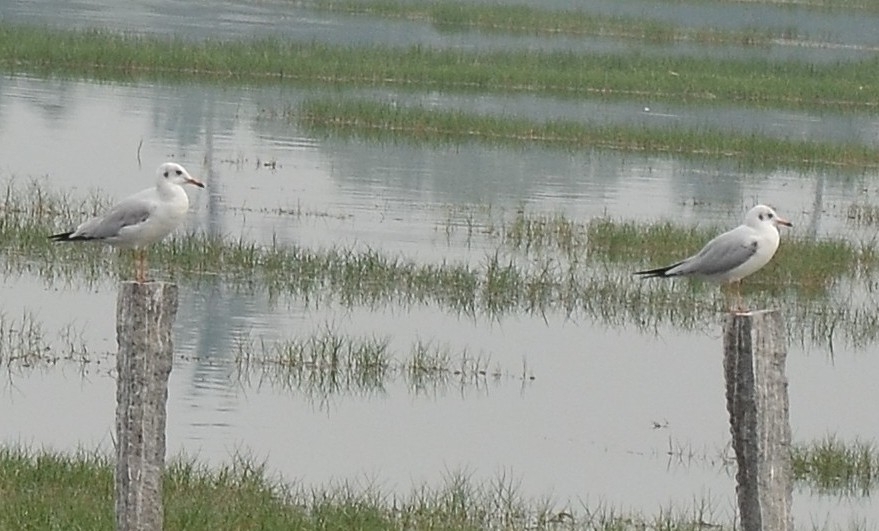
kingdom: Animalia
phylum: Chordata
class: Aves
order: Charadriiformes
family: Laridae
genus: Chroicocephalus
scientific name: Chroicocephalus brunnicephalus
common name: Brown-headed gull
